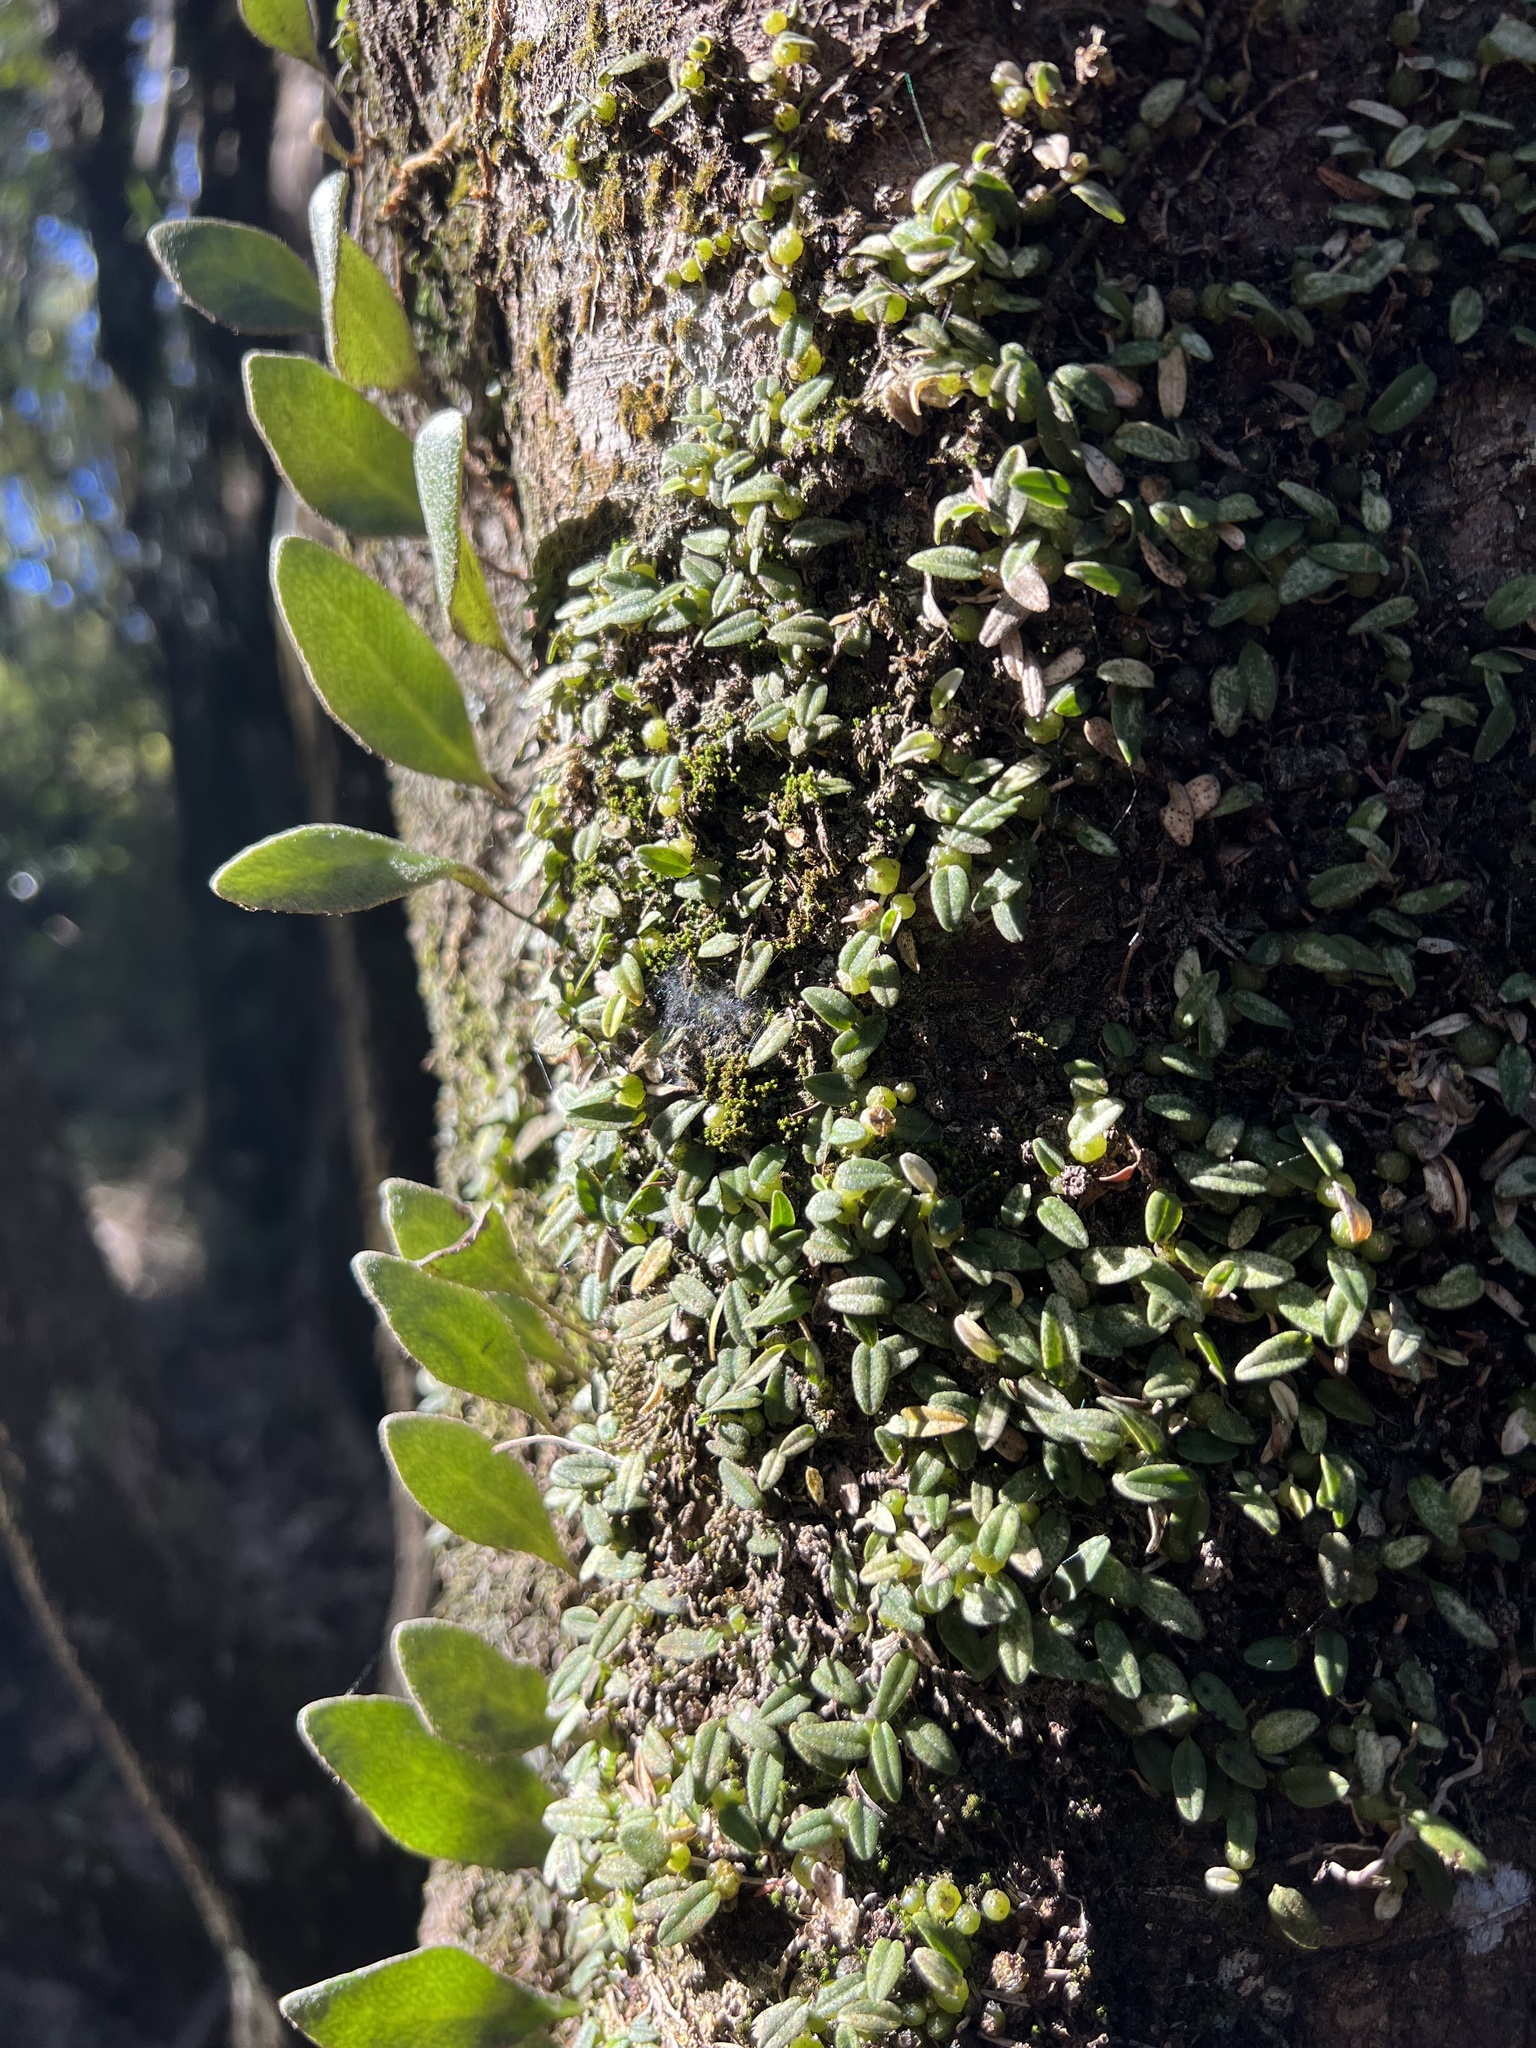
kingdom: Plantae
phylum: Tracheophyta
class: Polypodiopsida
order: Polypodiales
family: Polypodiaceae
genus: Pyrrosia
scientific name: Pyrrosia eleagnifolia
